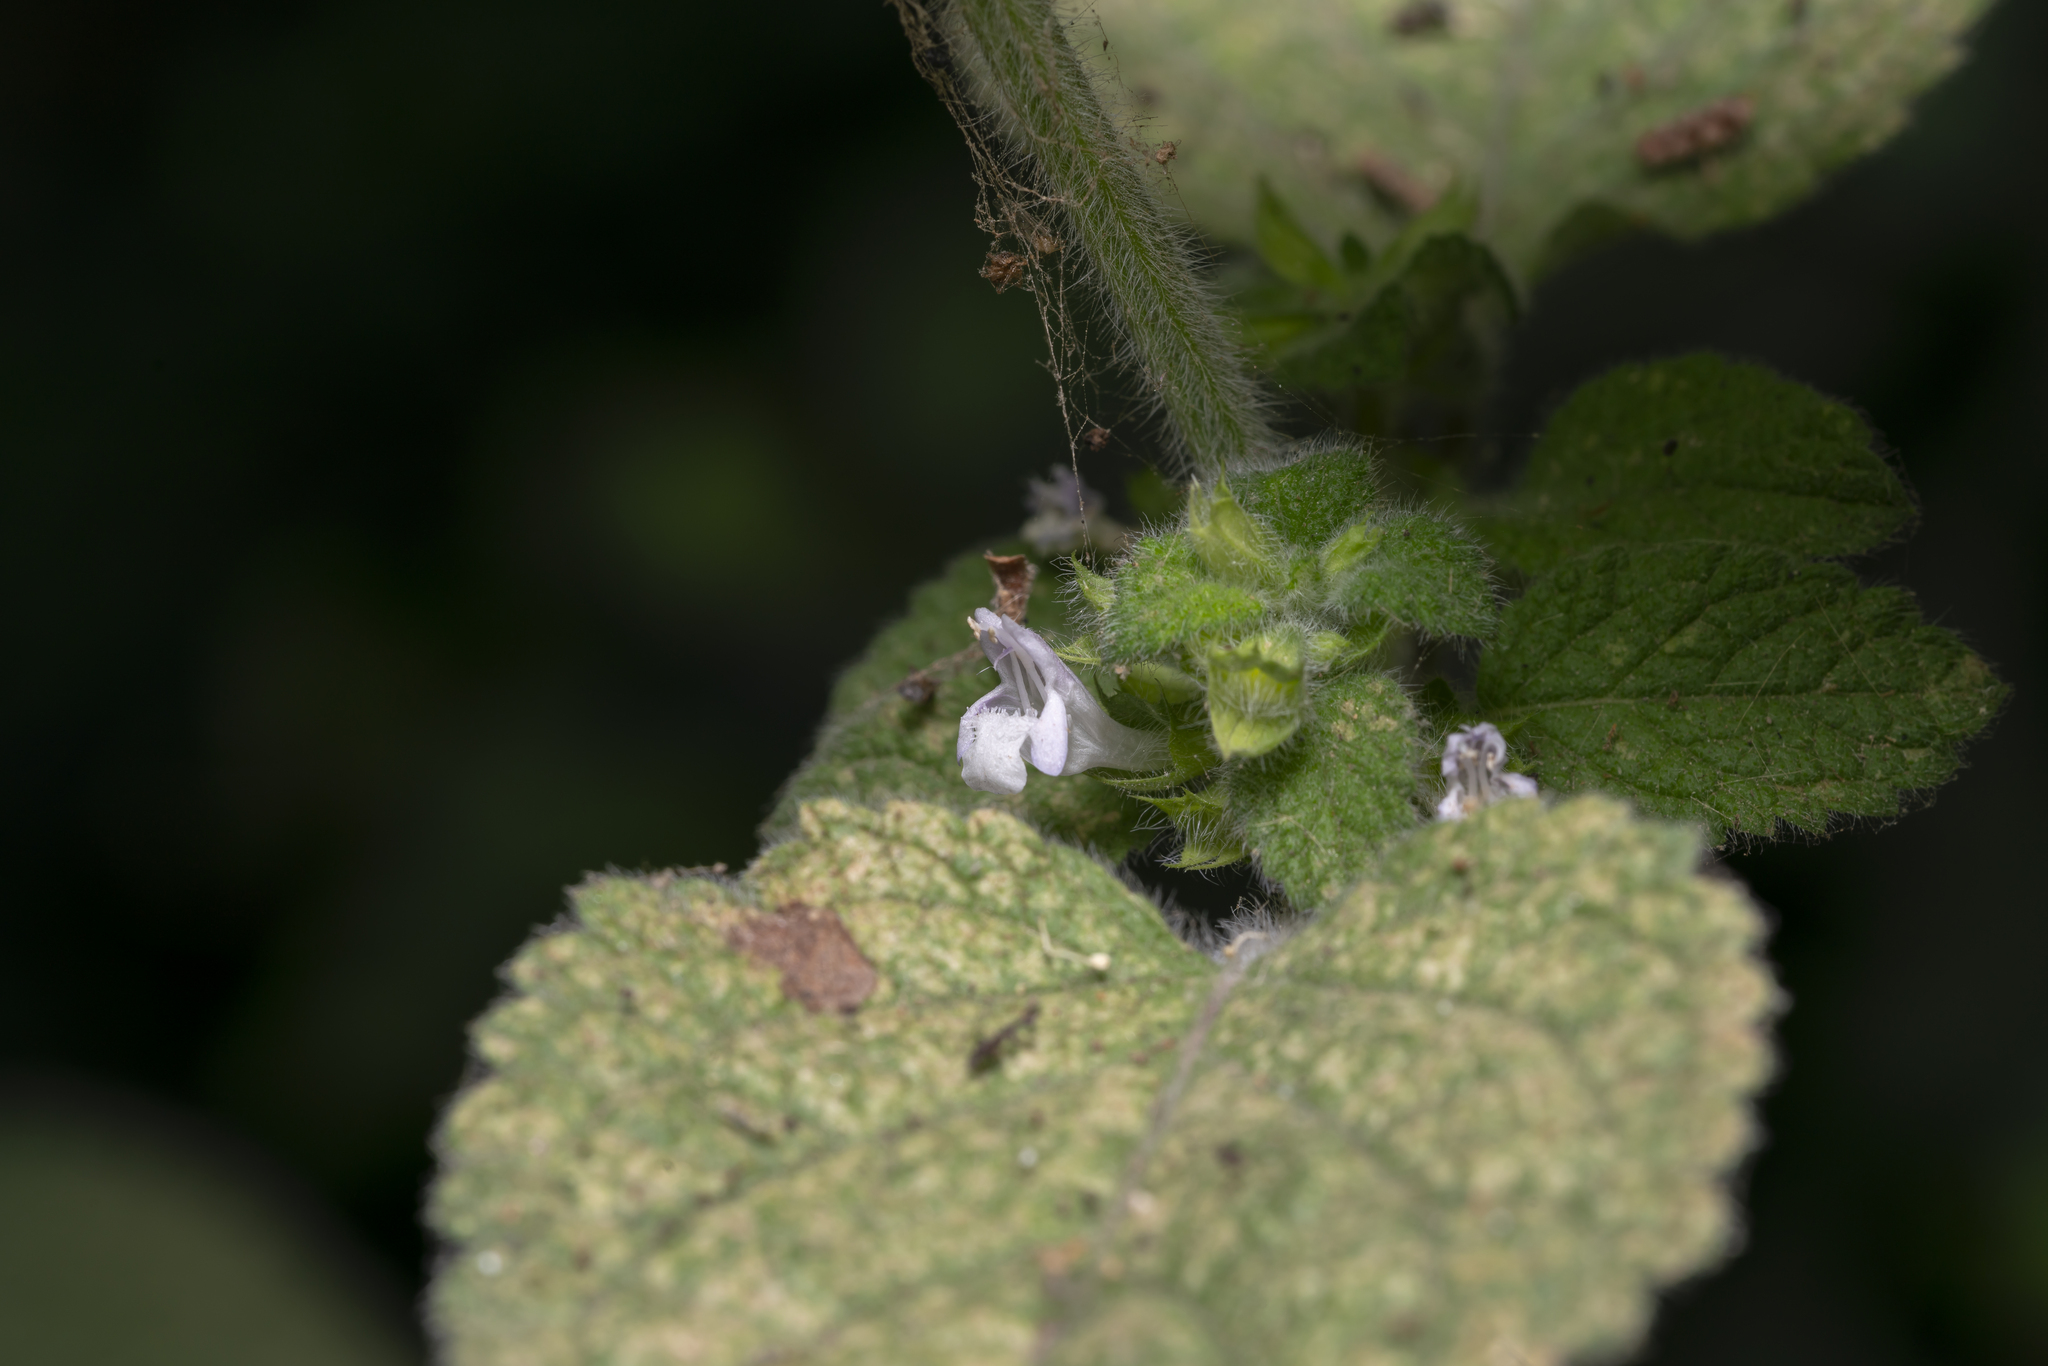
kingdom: Plantae
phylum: Tracheophyta
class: Magnoliopsida
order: Lamiales
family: Lamiaceae
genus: Melissa
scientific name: Melissa officinalis
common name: Balm
